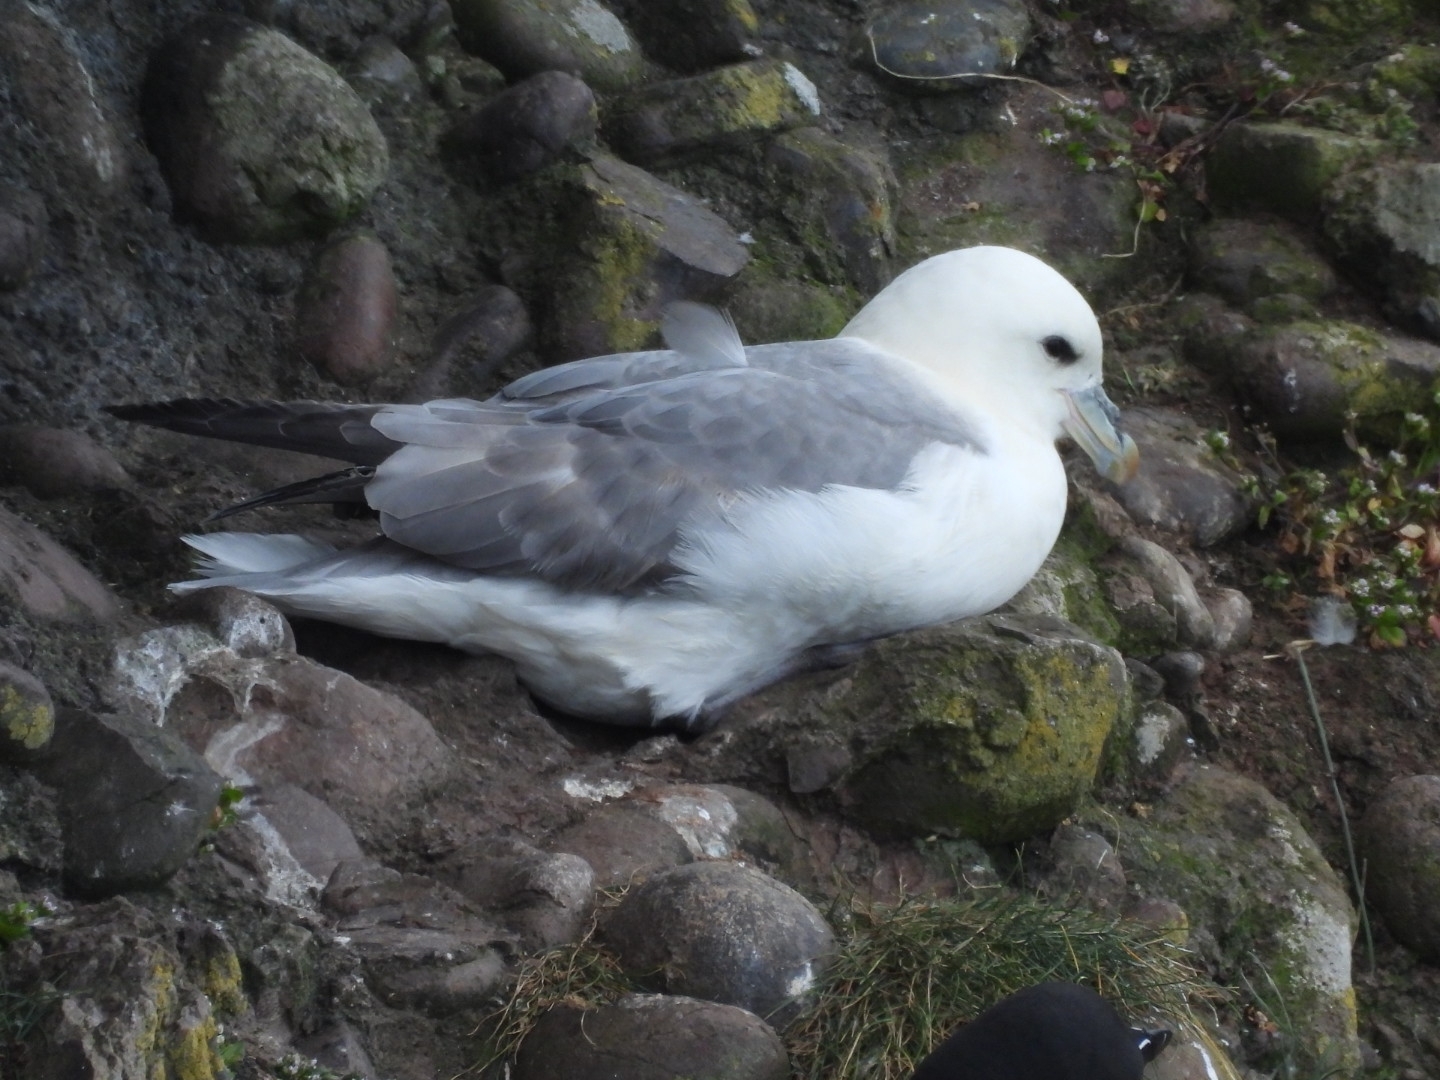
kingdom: Animalia
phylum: Chordata
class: Aves
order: Procellariiformes
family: Procellariidae
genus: Fulmarus
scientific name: Fulmarus glacialis
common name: Northern fulmar
